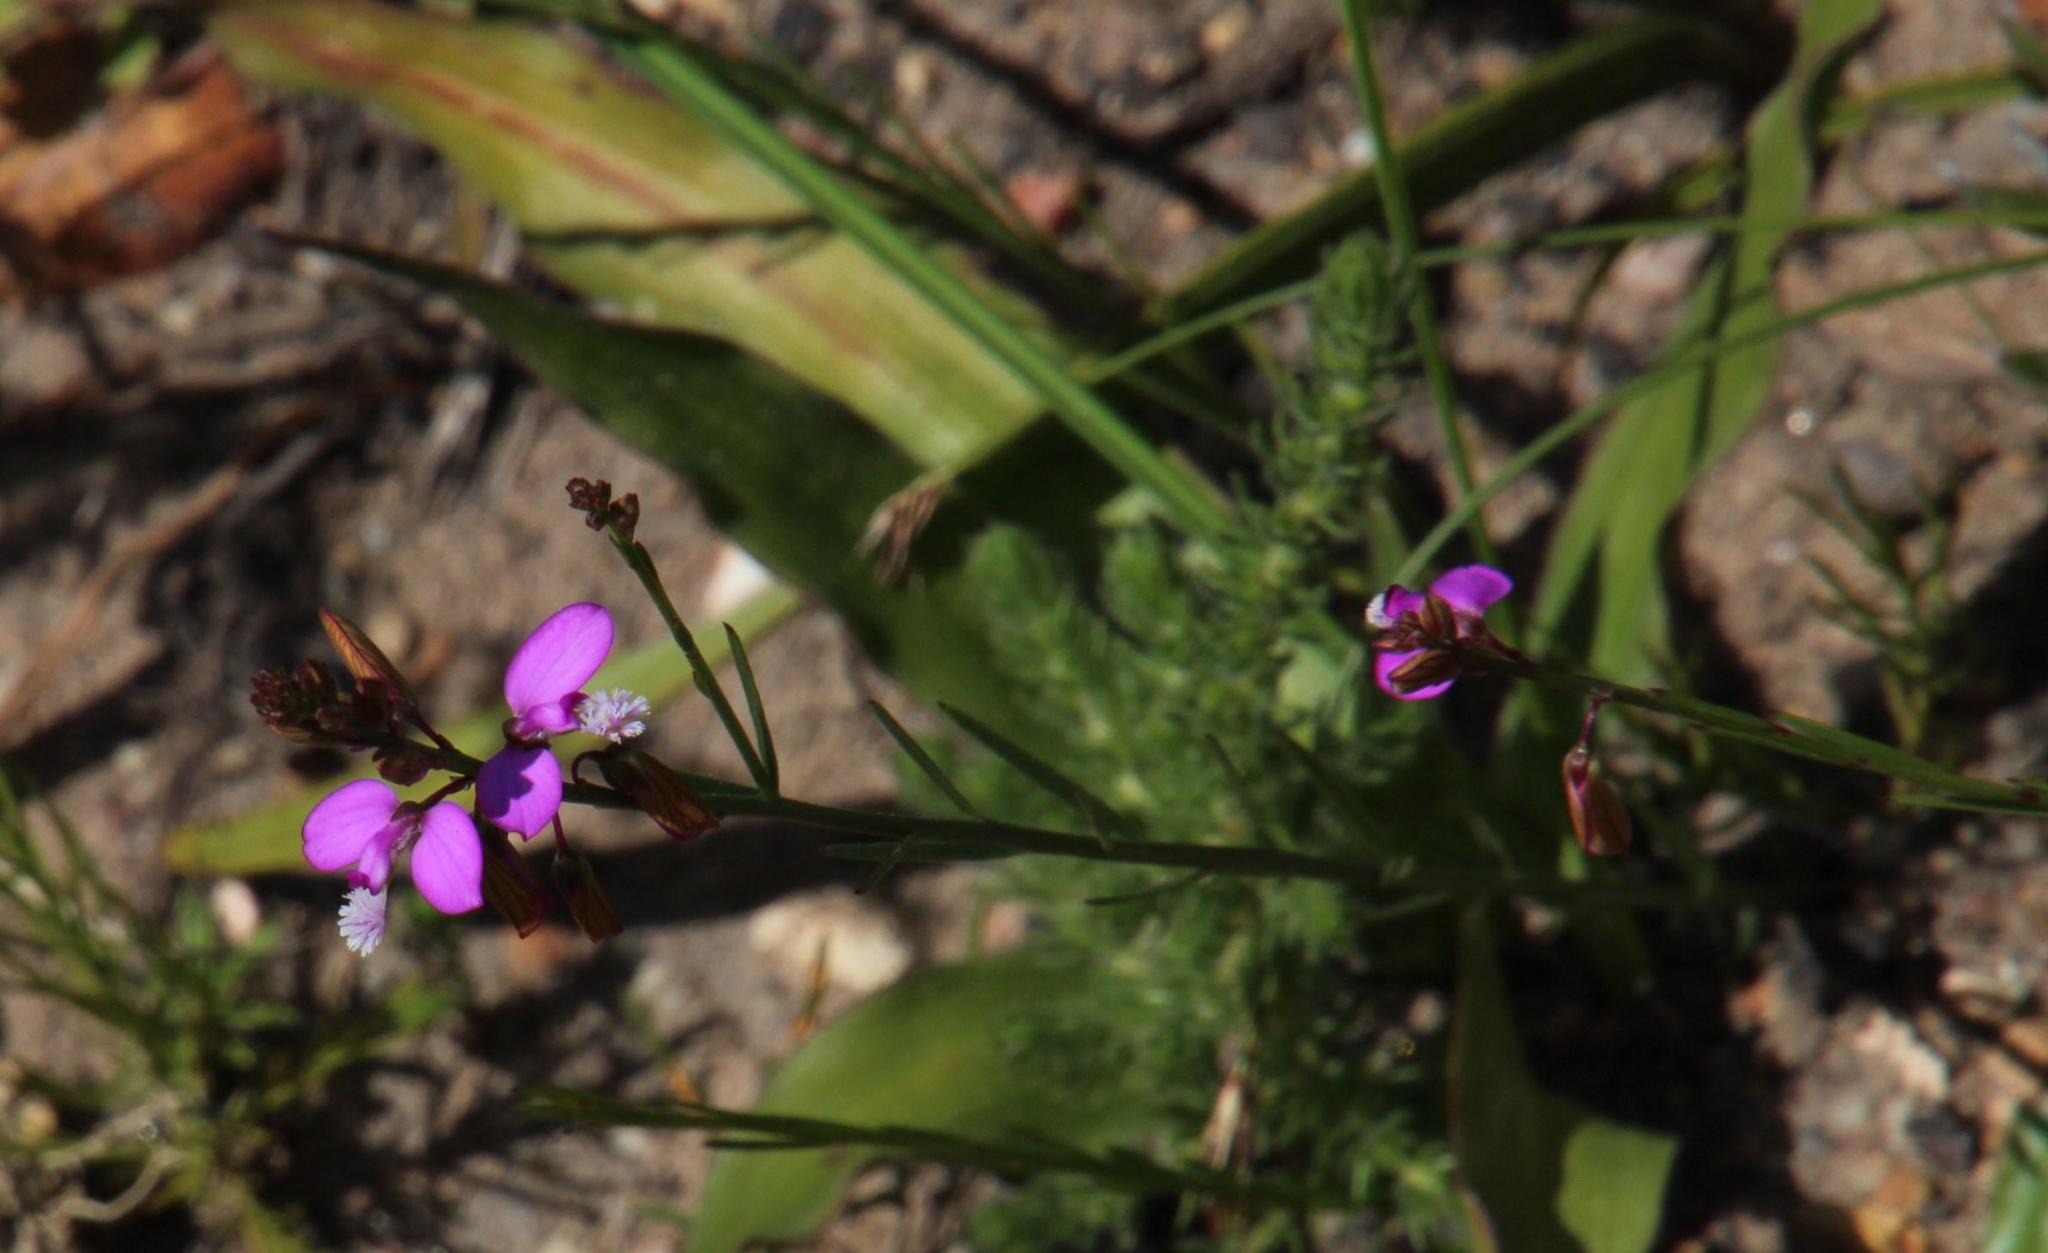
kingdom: Plantae
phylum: Tracheophyta
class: Magnoliopsida
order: Fabales
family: Polygalaceae
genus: Polygala
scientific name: Polygala garcini
